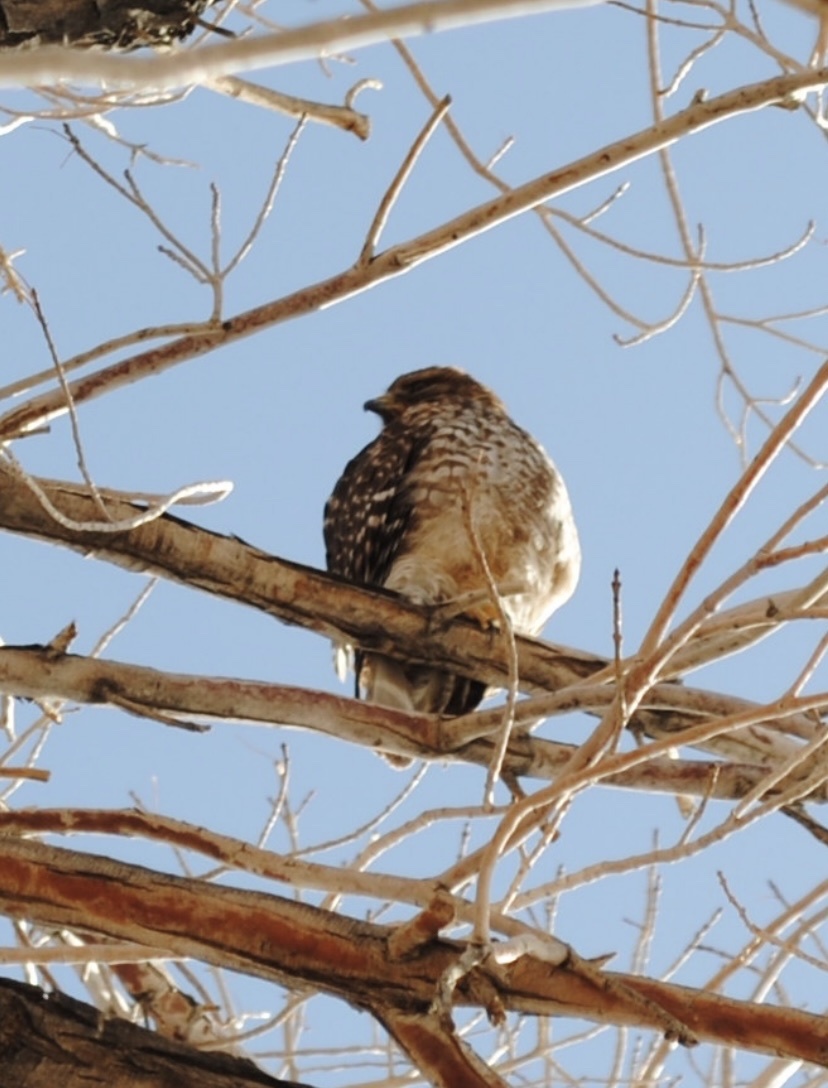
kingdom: Animalia
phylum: Chordata
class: Aves
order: Accipitriformes
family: Accipitridae
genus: Buteo
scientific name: Buteo lineatus
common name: Red-shouldered hawk
